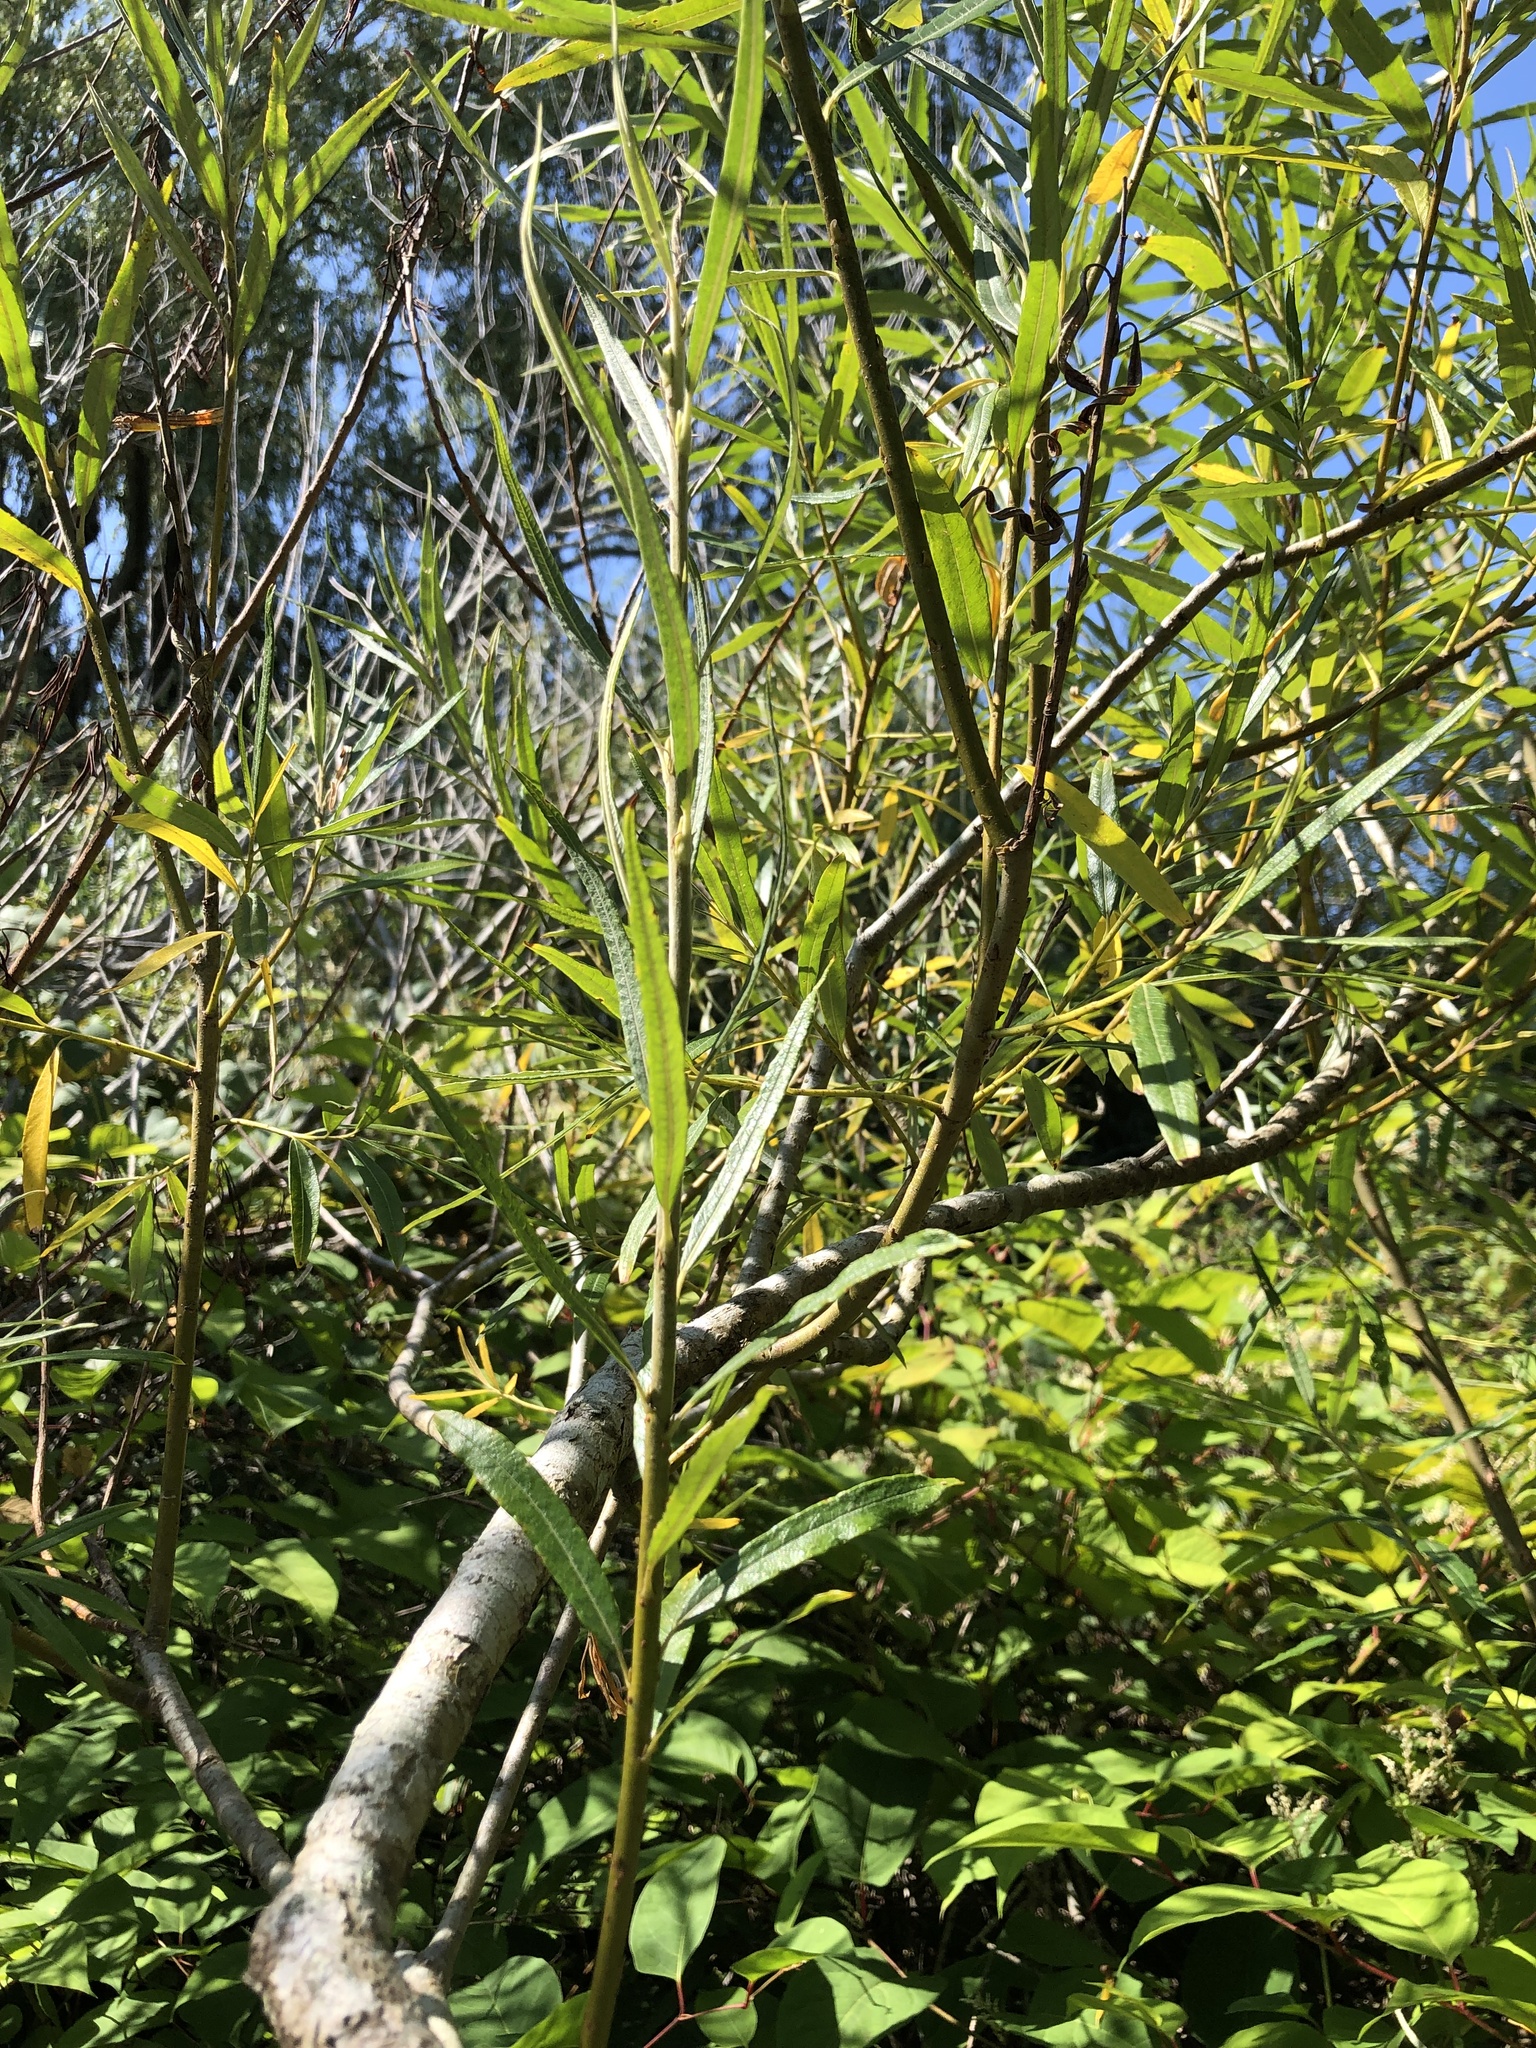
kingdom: Plantae
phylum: Tracheophyta
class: Magnoliopsida
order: Malpighiales
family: Salicaceae
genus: Salix
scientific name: Salix viminalis
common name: Osier
